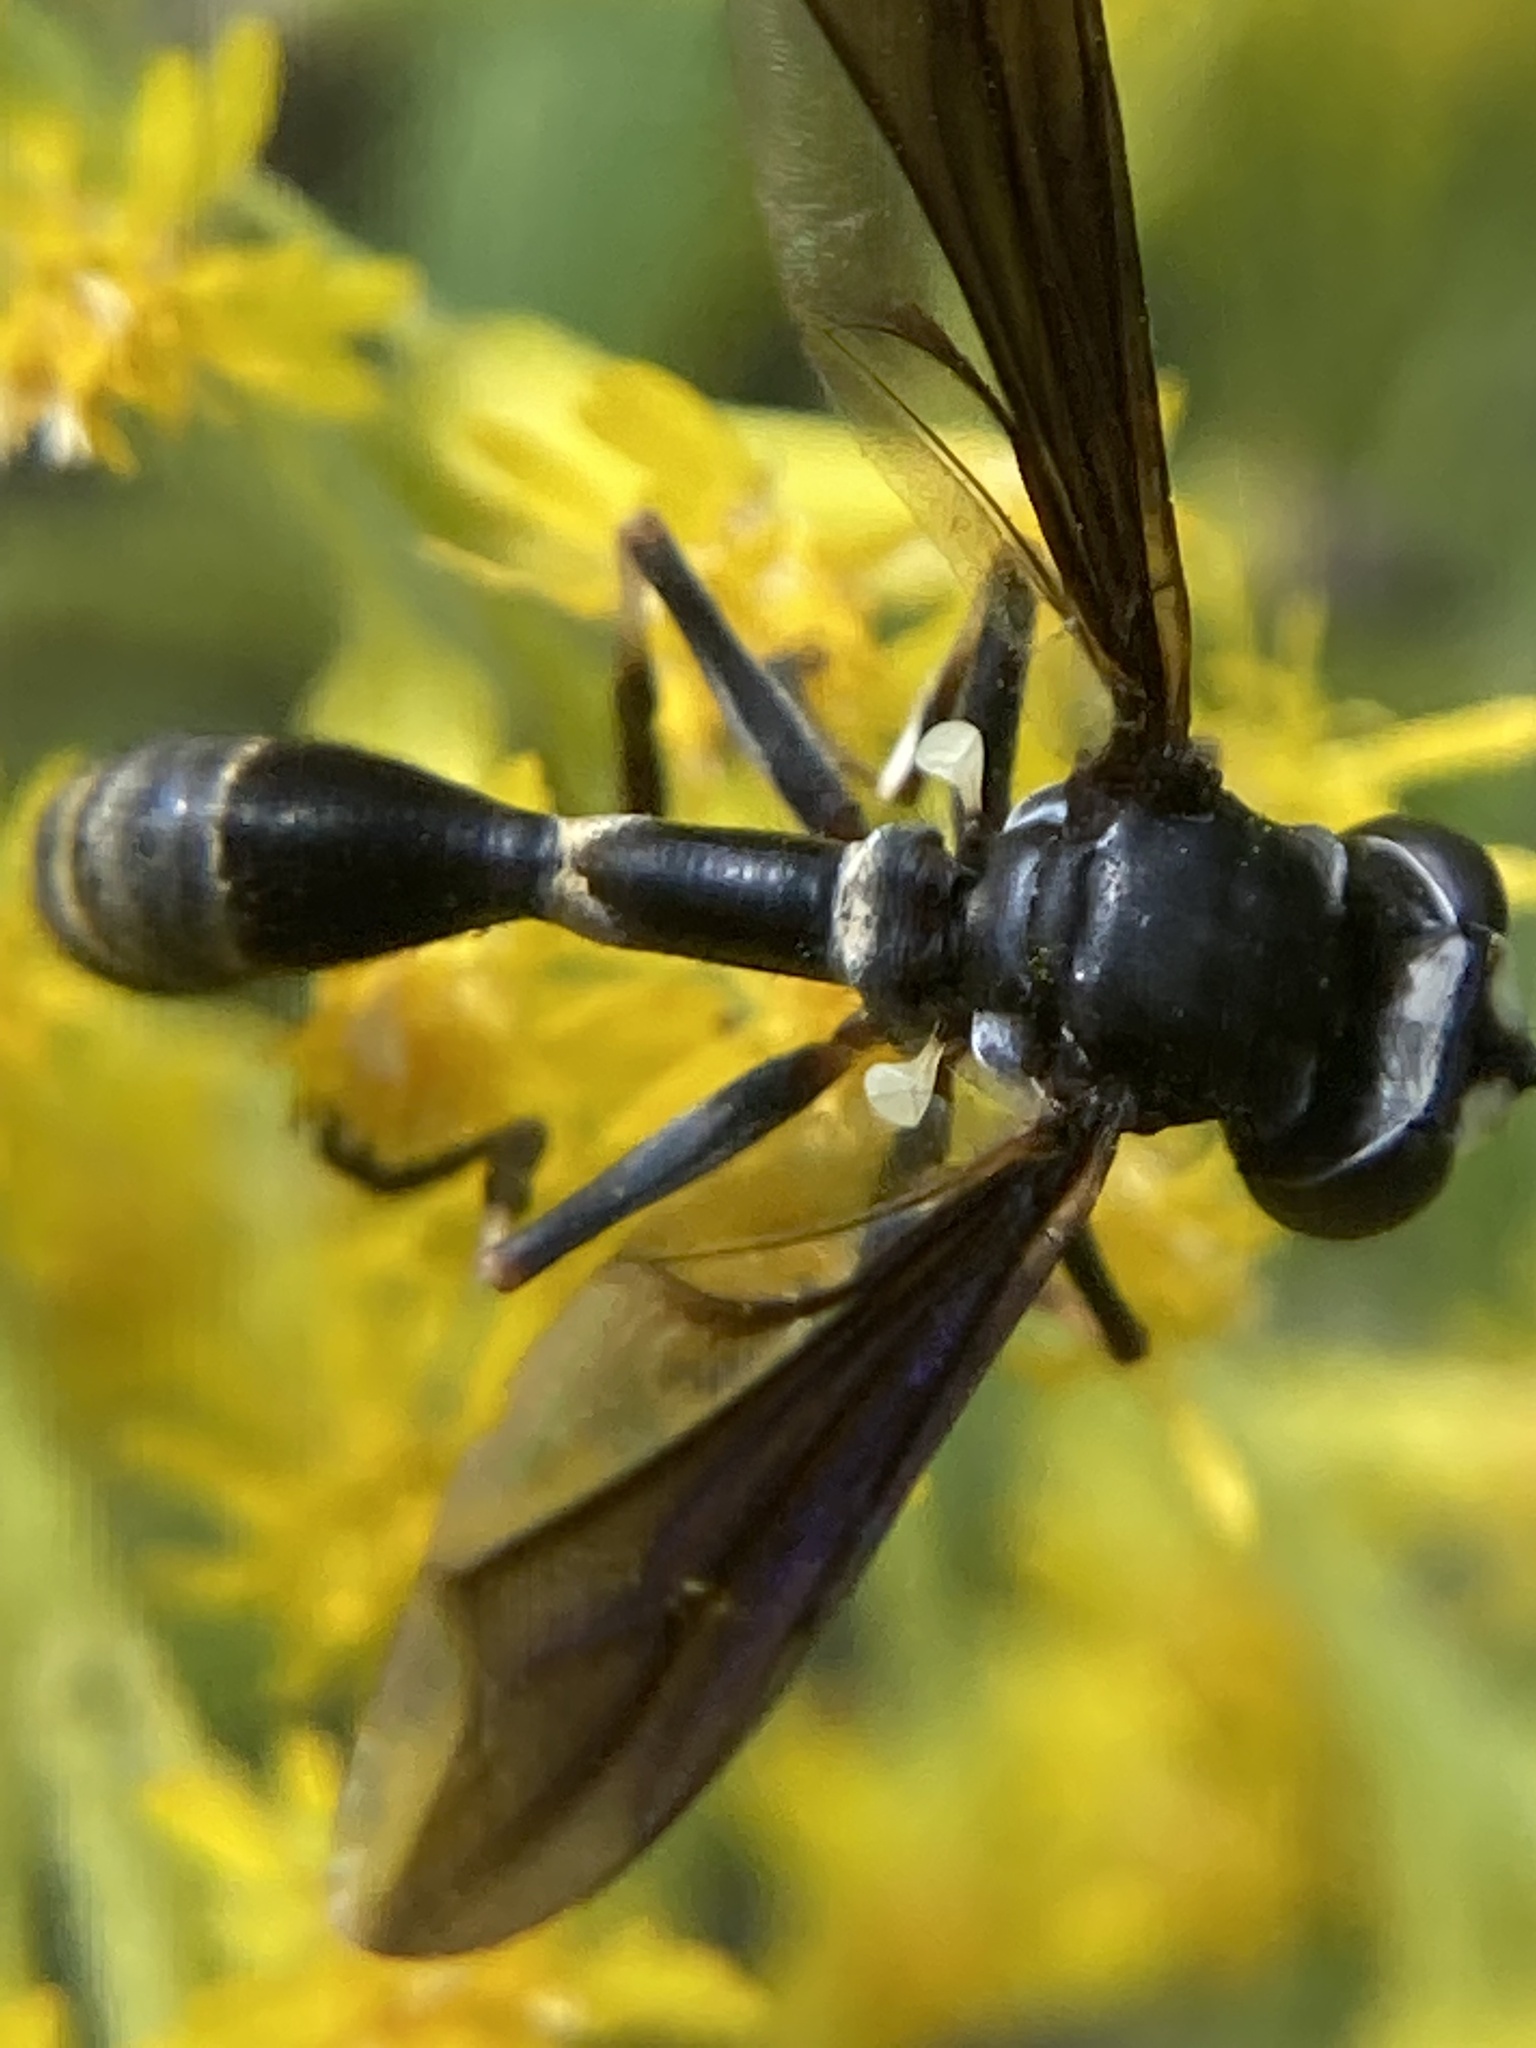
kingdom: Animalia
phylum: Arthropoda
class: Insecta
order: Diptera
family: Conopidae
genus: Physocephala
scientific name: Physocephala tibialis
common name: Common eastern physocephala
